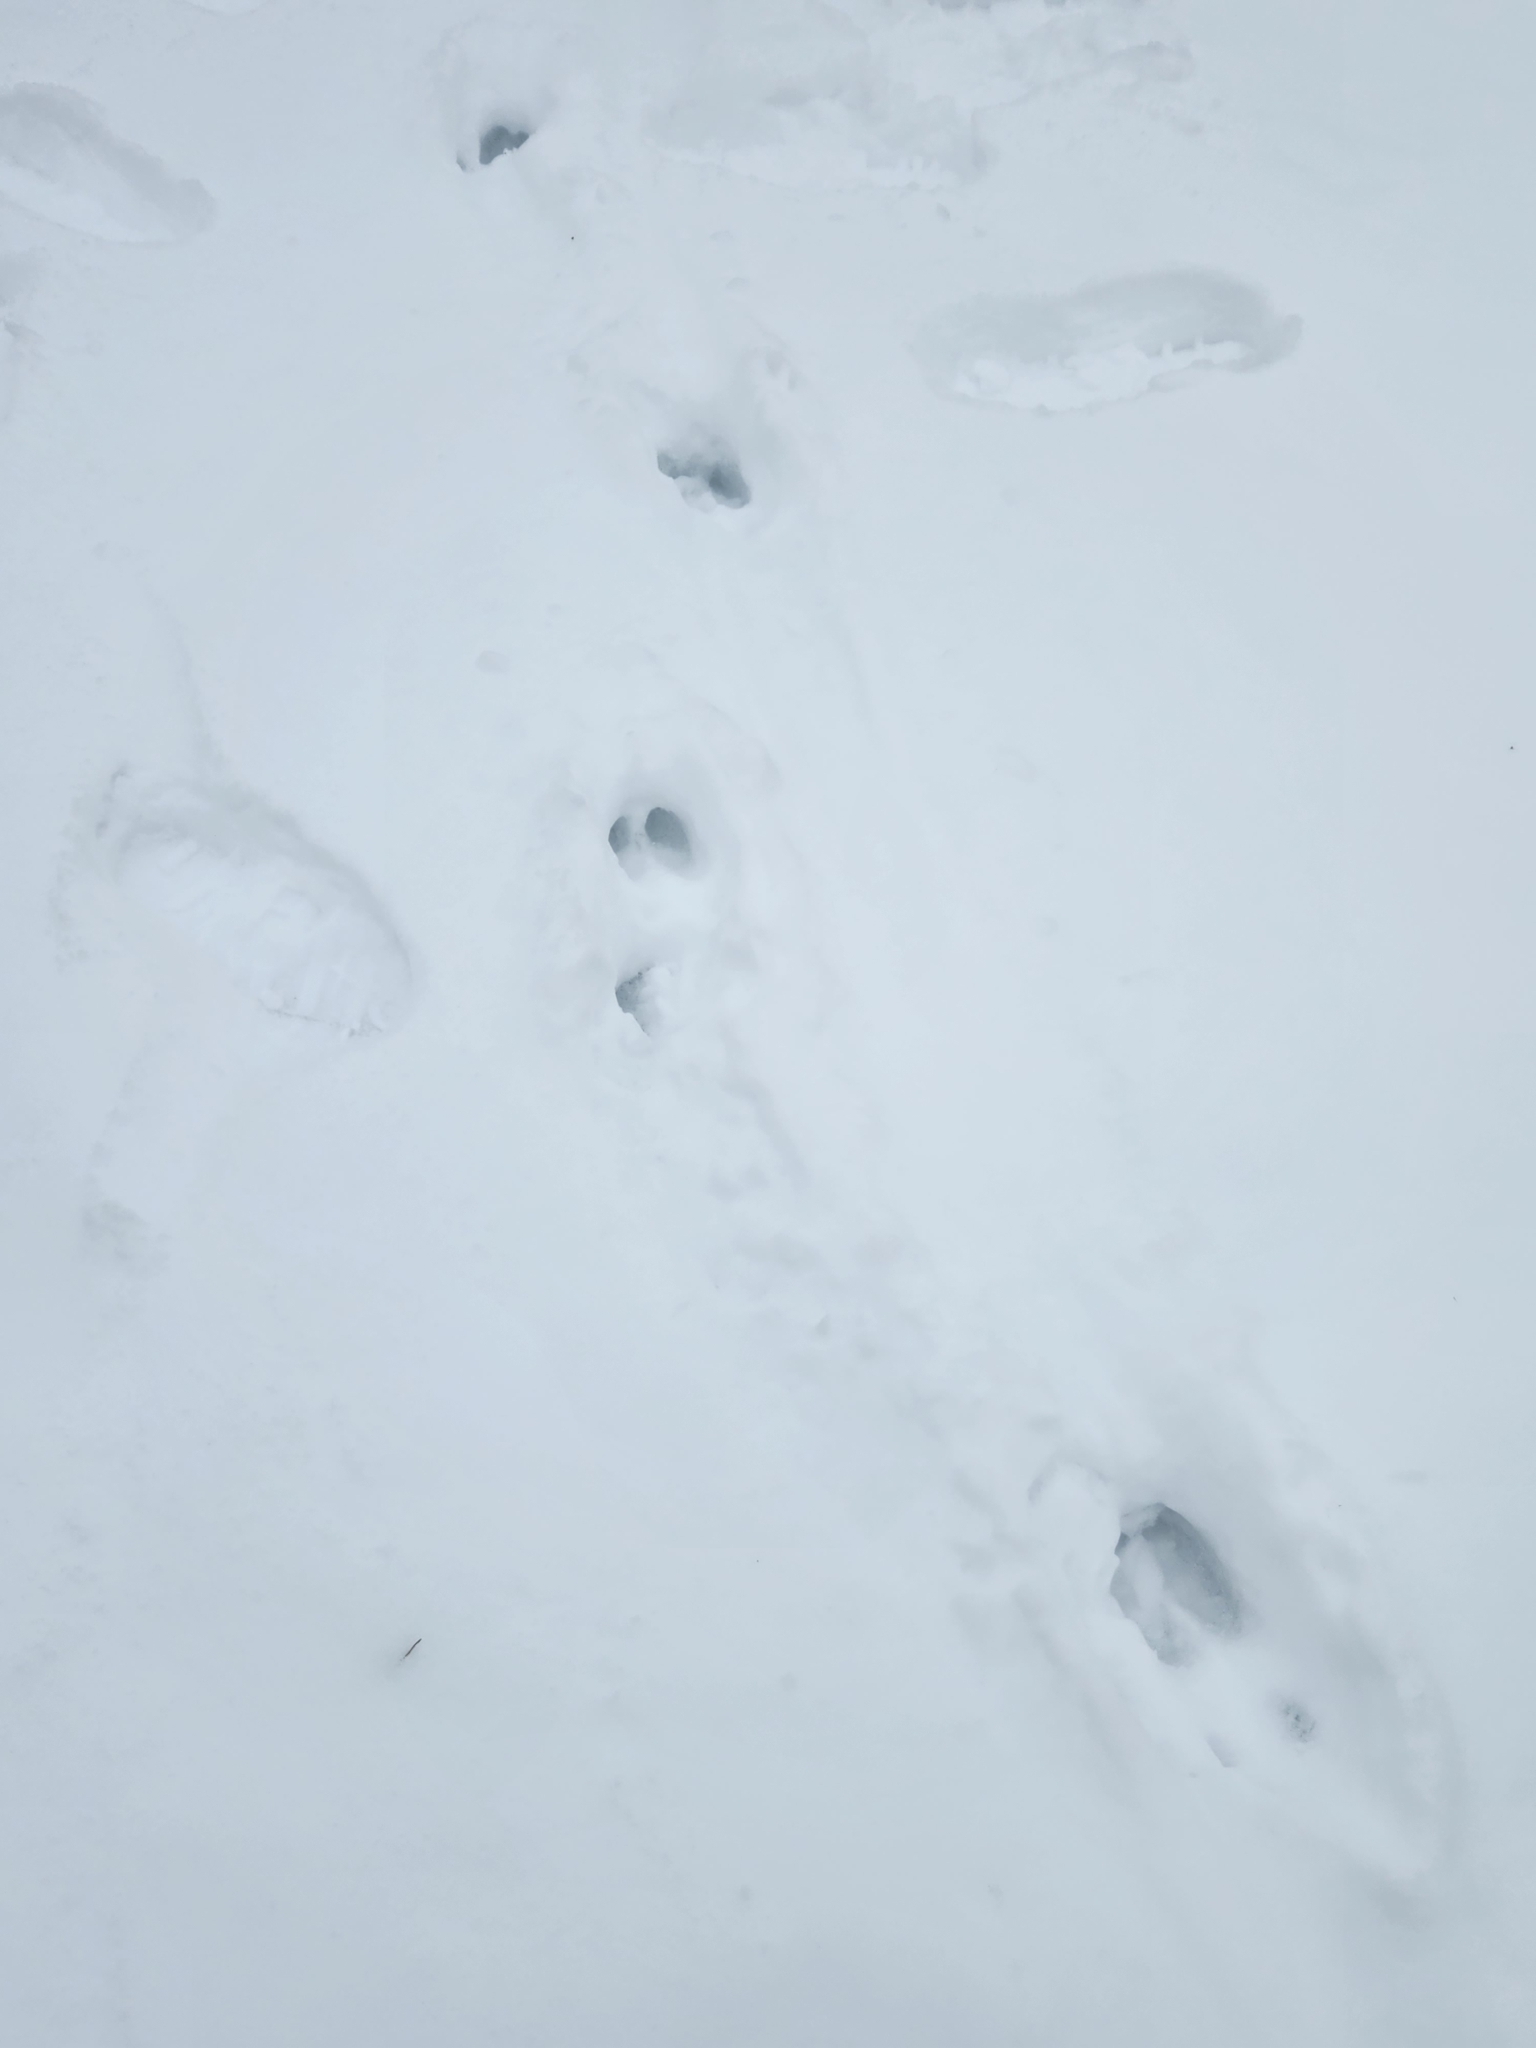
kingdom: Animalia
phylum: Chordata
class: Mammalia
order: Artiodactyla
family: Cervidae
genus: Odocoileus
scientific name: Odocoileus virginianus
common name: White-tailed deer
